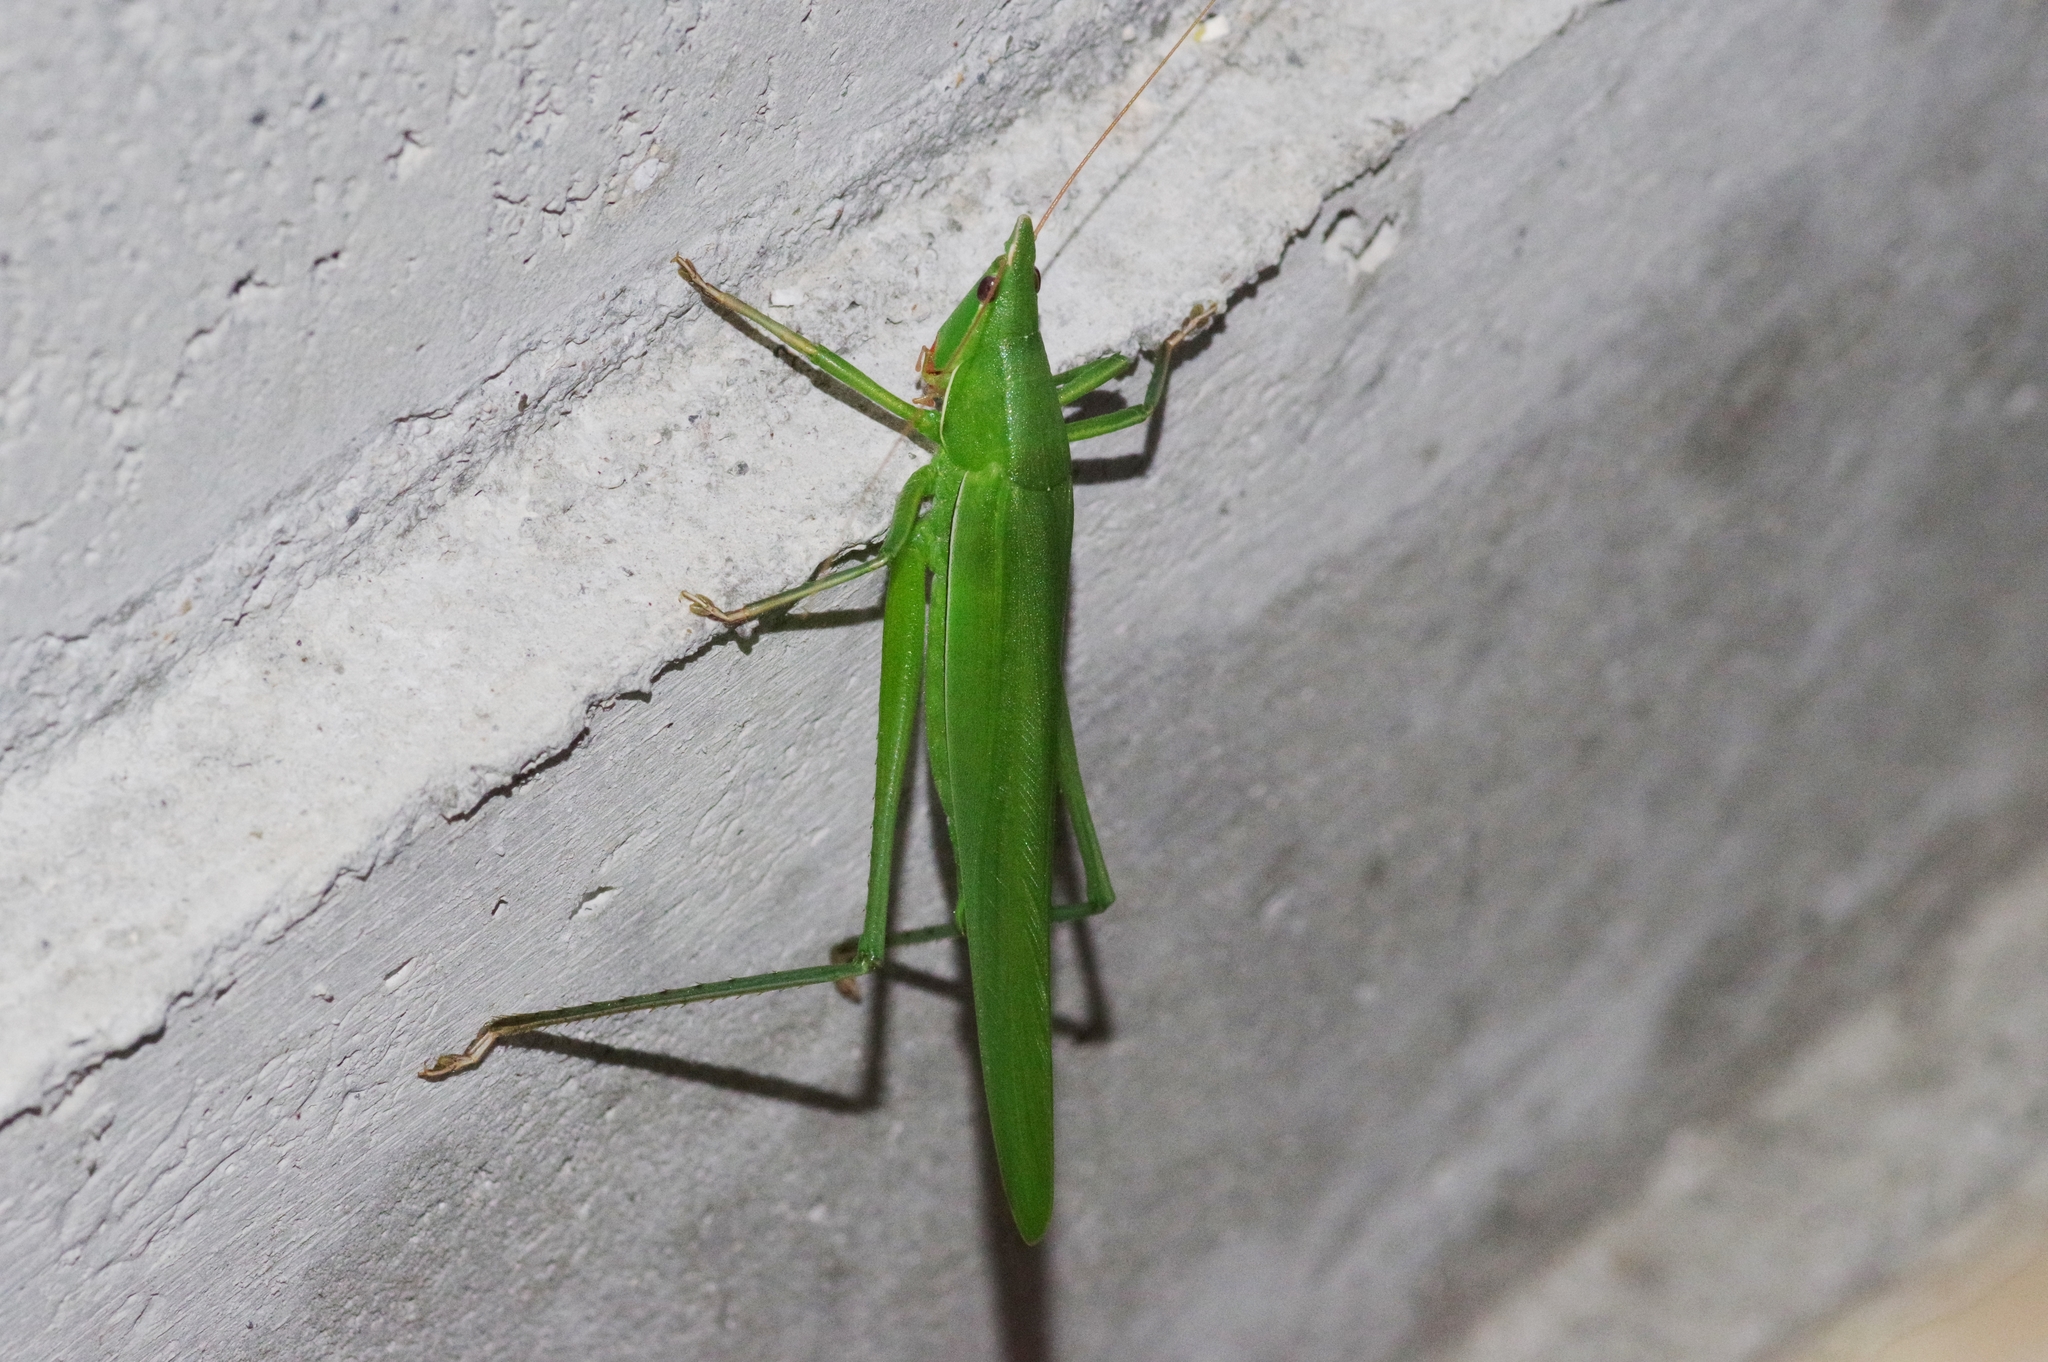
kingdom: Animalia
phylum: Arthropoda
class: Insecta
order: Orthoptera
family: Tettigoniidae
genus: Euconocephalus
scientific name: Euconocephalus varius
